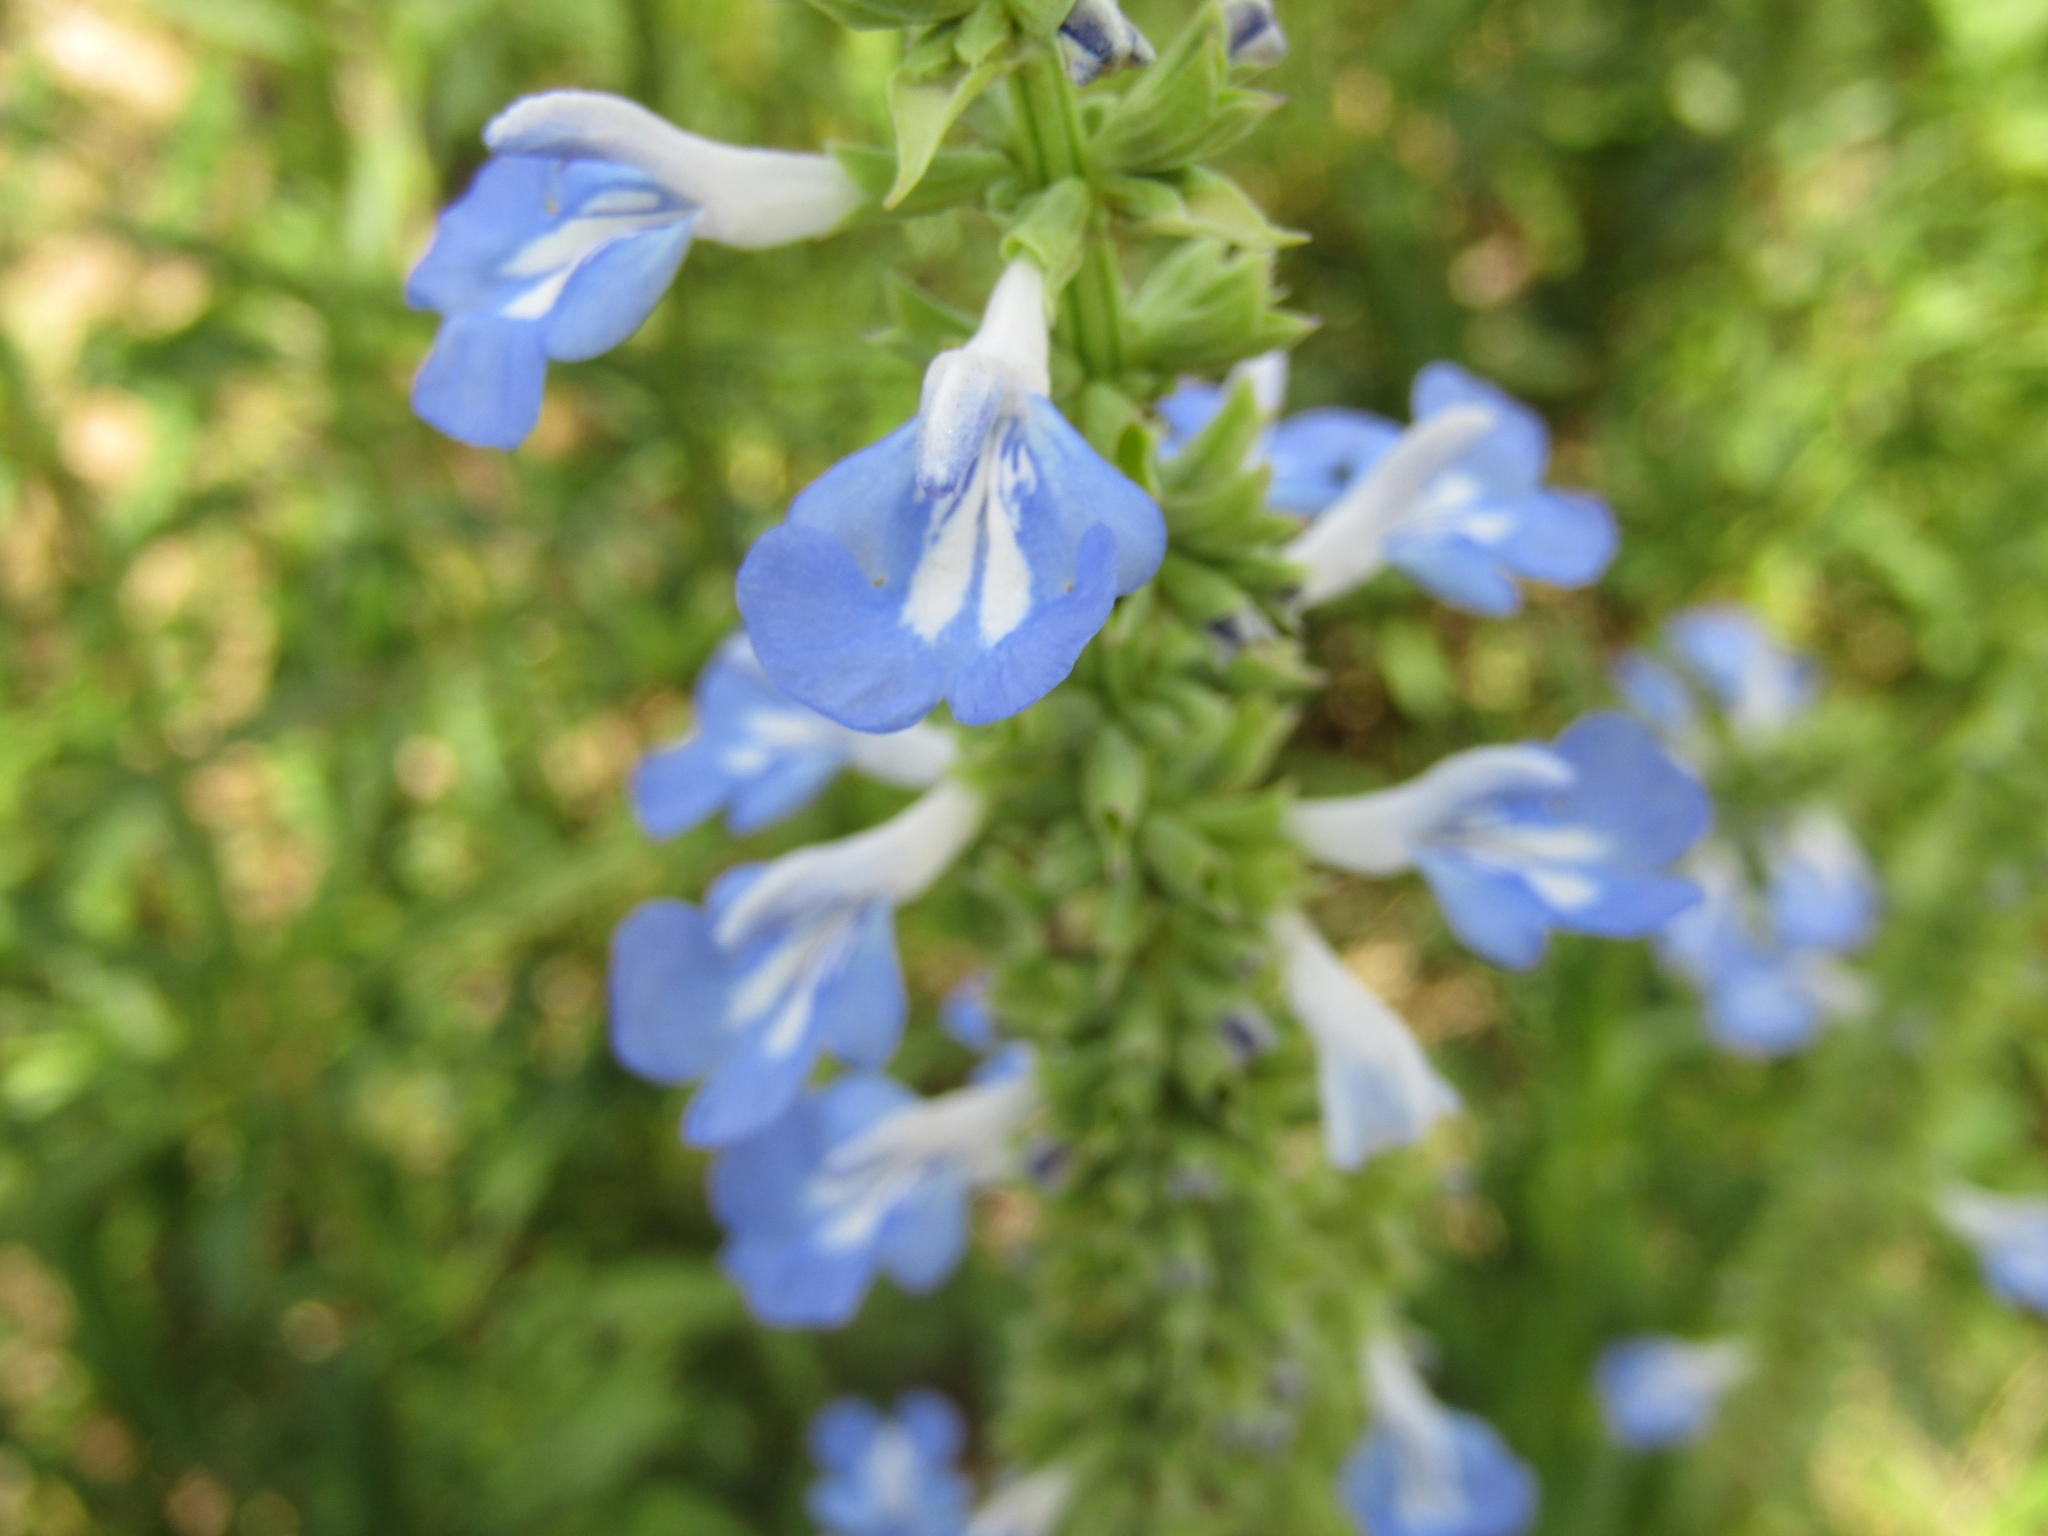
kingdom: Plantae
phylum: Tracheophyta
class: Magnoliopsida
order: Lamiales
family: Lamiaceae
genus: Salvia
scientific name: Salvia uliginosa
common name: Bog sage
